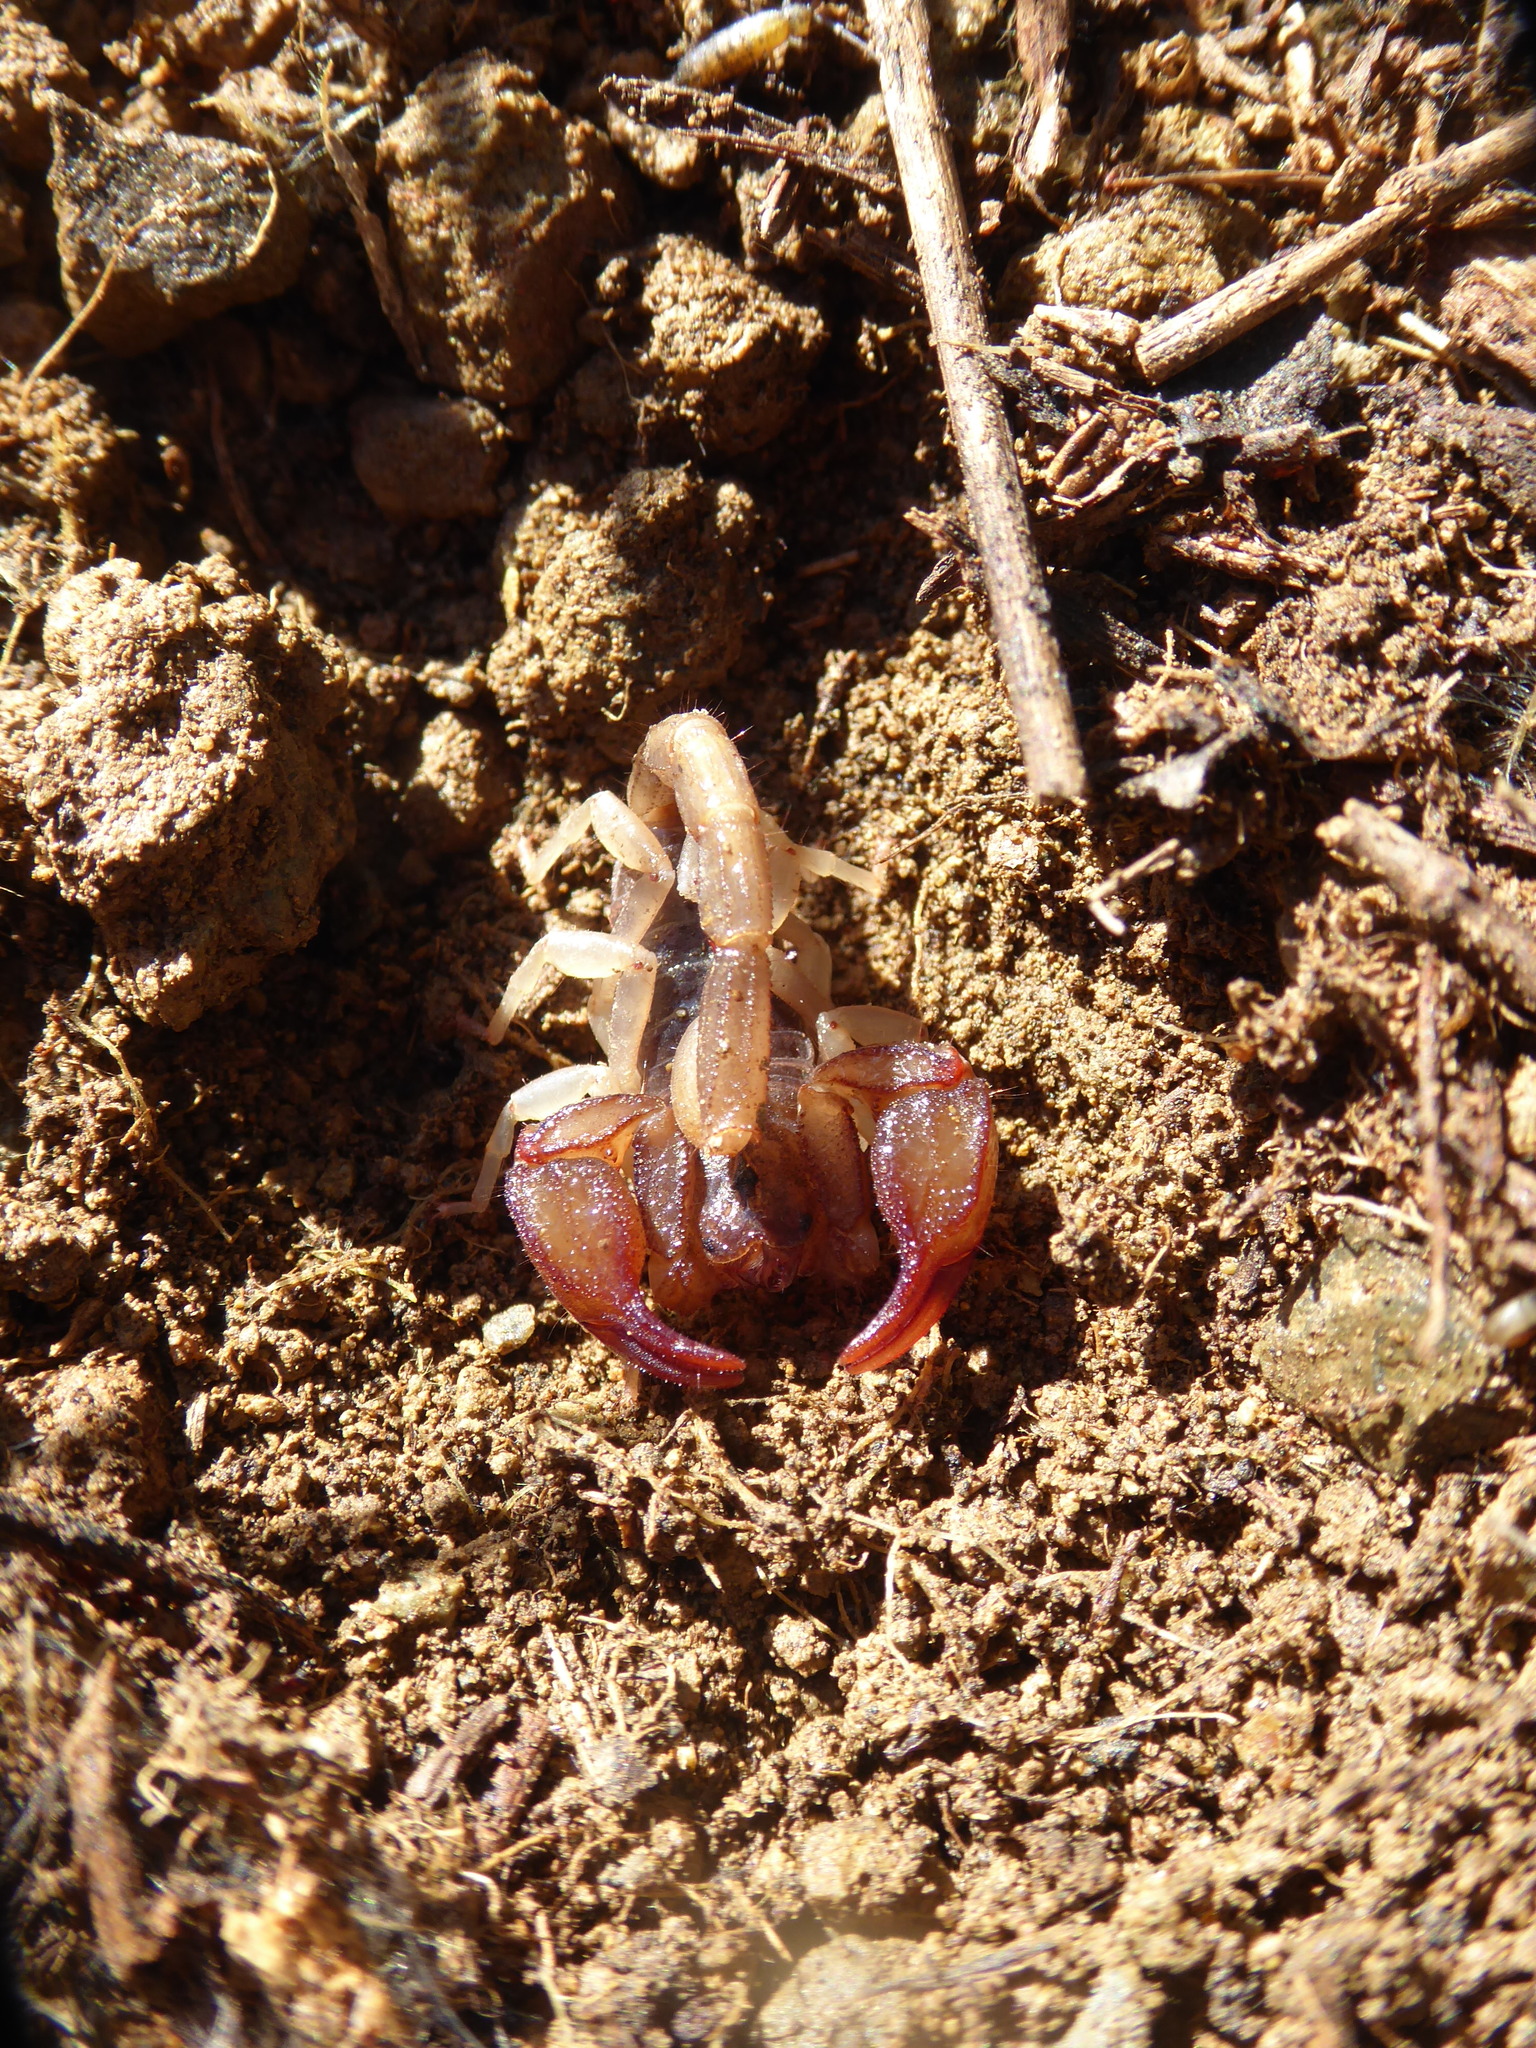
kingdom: Animalia
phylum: Arthropoda
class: Arachnida
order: Scorpiones
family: Chactidae
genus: Uroctonus
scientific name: Uroctonus mordax
